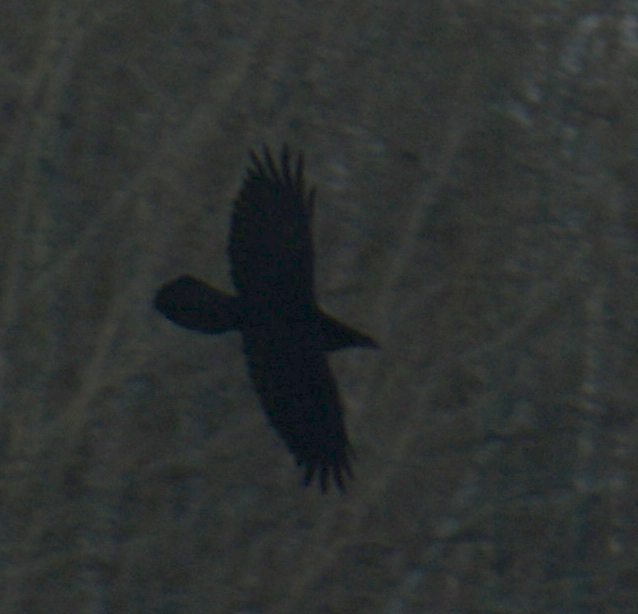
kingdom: Animalia
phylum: Chordata
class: Aves
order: Passeriformes
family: Corvidae
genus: Corvus
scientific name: Corvus corax
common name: Common raven
